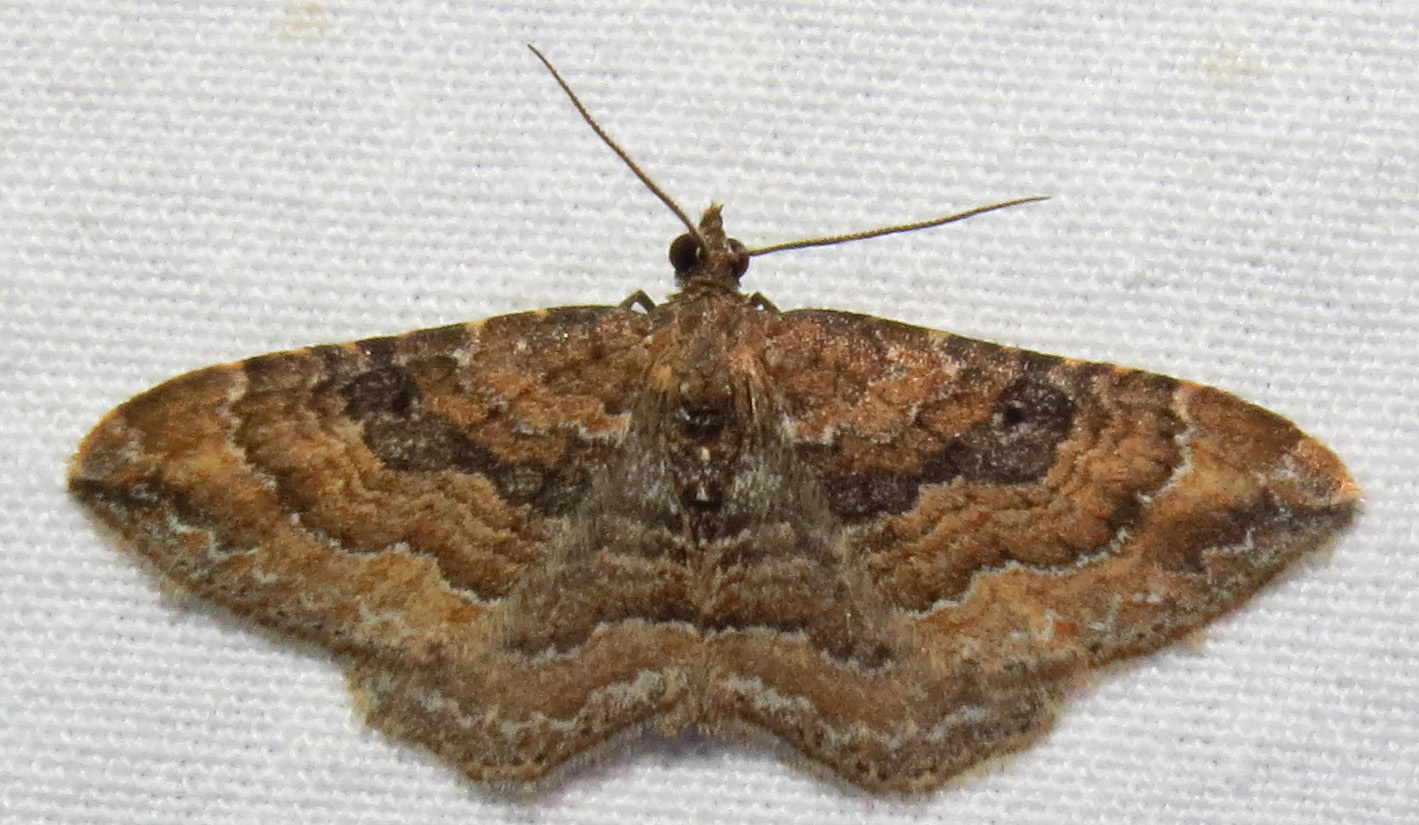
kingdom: Animalia
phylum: Arthropoda
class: Insecta
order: Lepidoptera
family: Geometridae
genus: Orthonama
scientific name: Orthonama obstipata
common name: The gem
